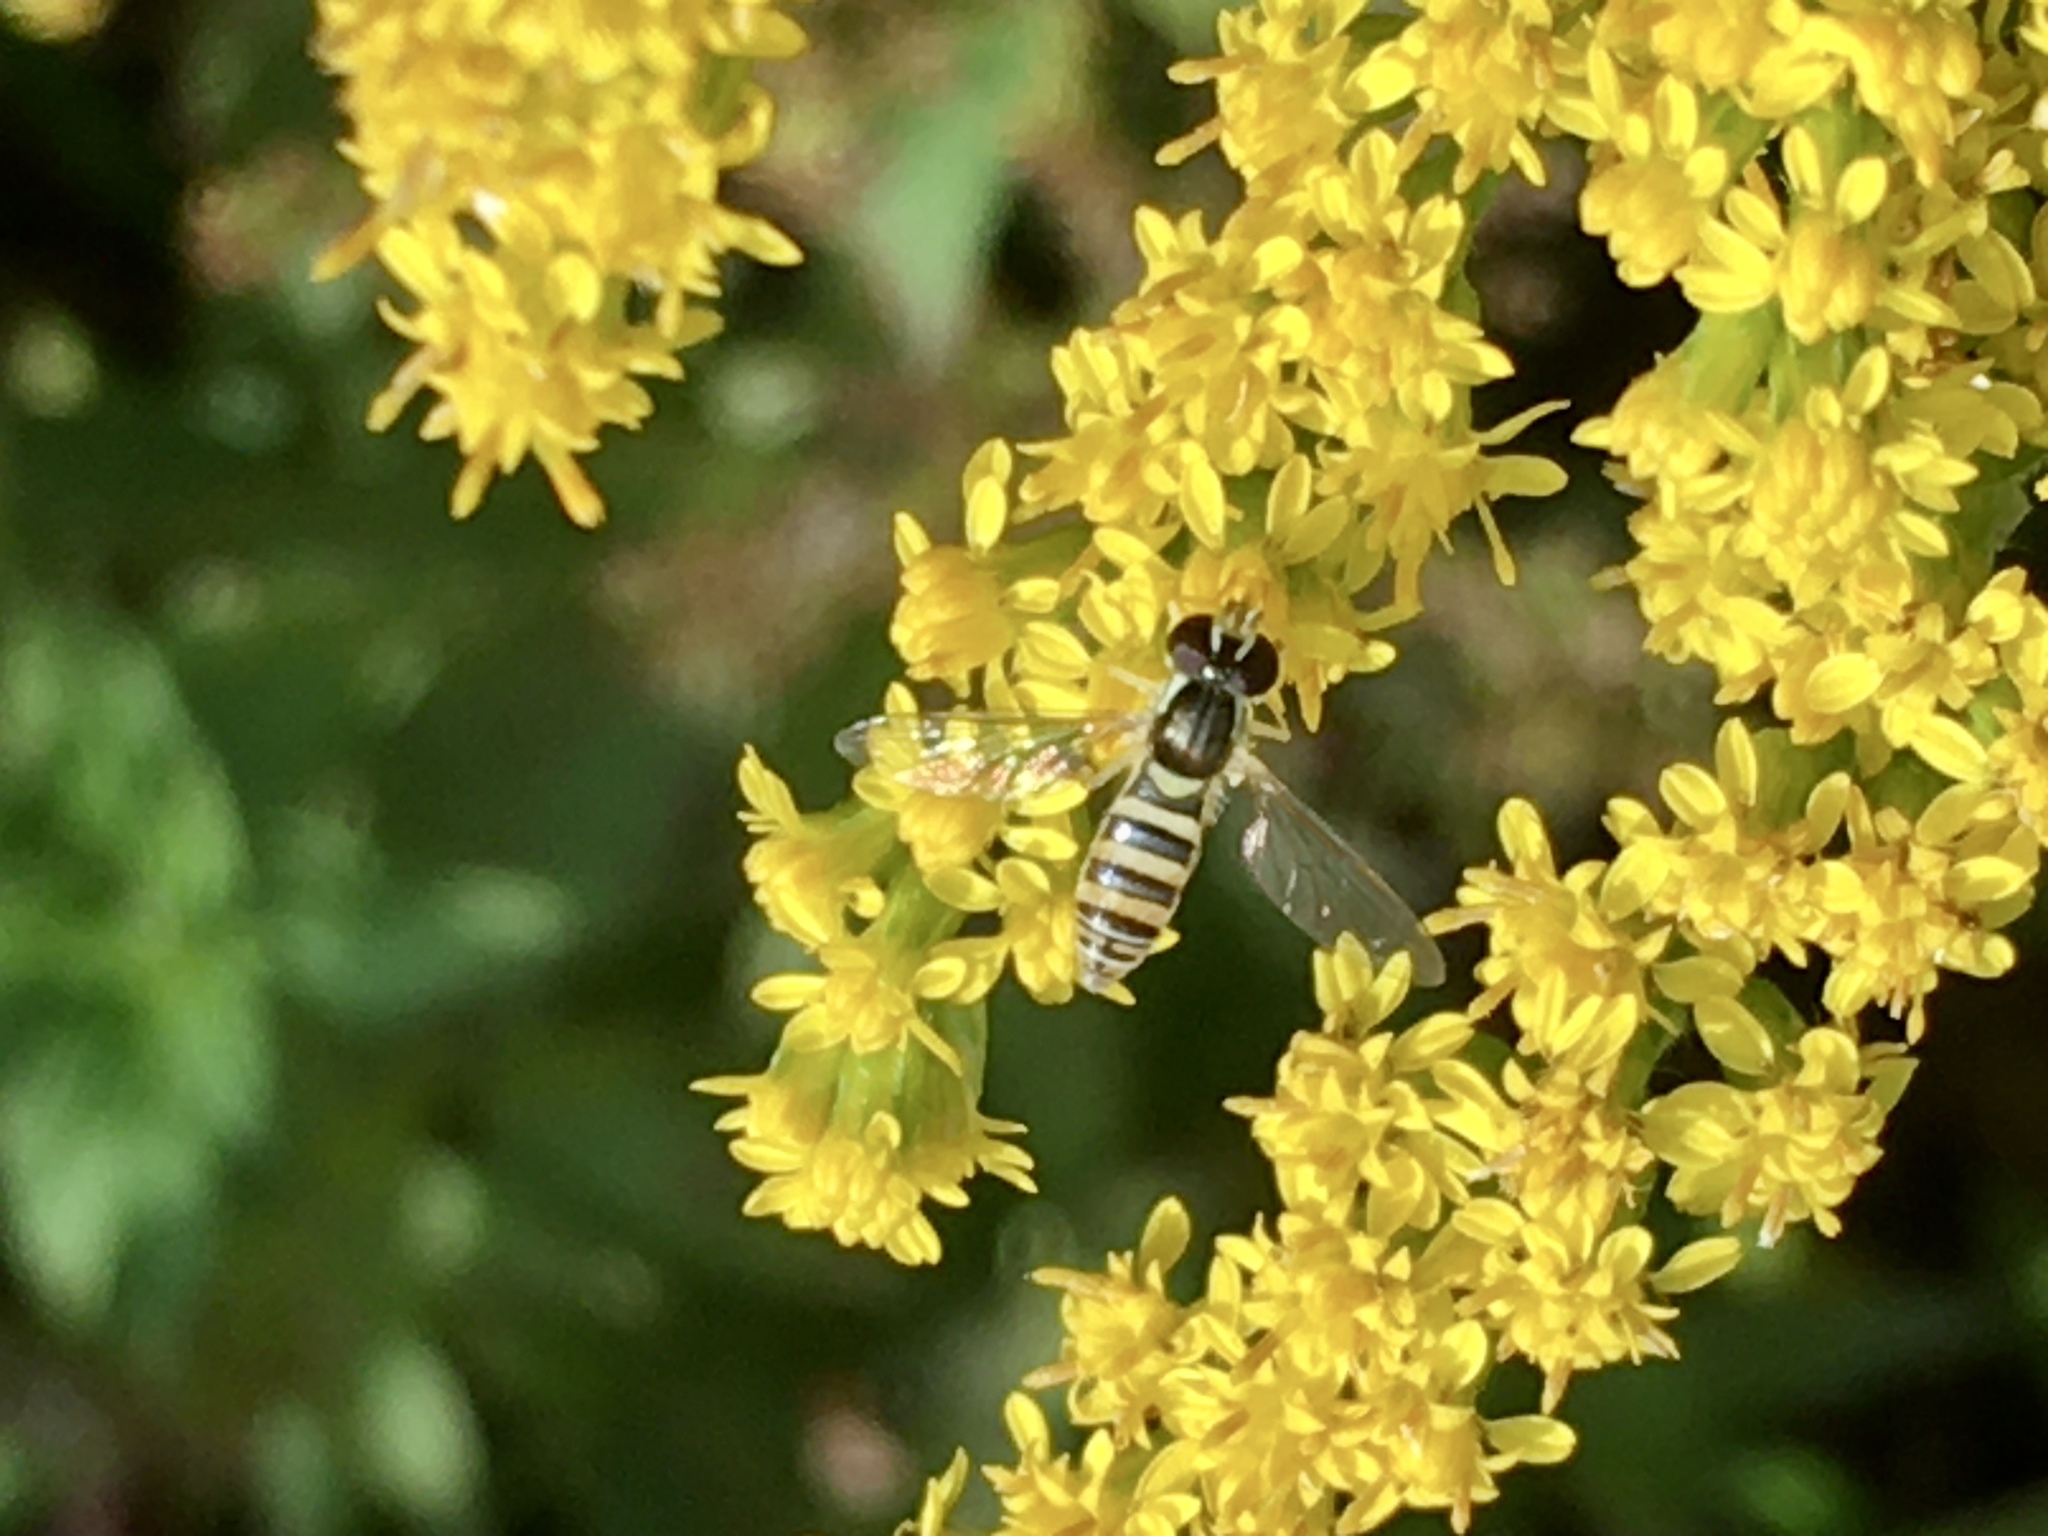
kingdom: Animalia
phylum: Arthropoda
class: Insecta
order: Diptera
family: Syrphidae
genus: Sphaerophoria
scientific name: Sphaerophoria contigua
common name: Tufted globetail
